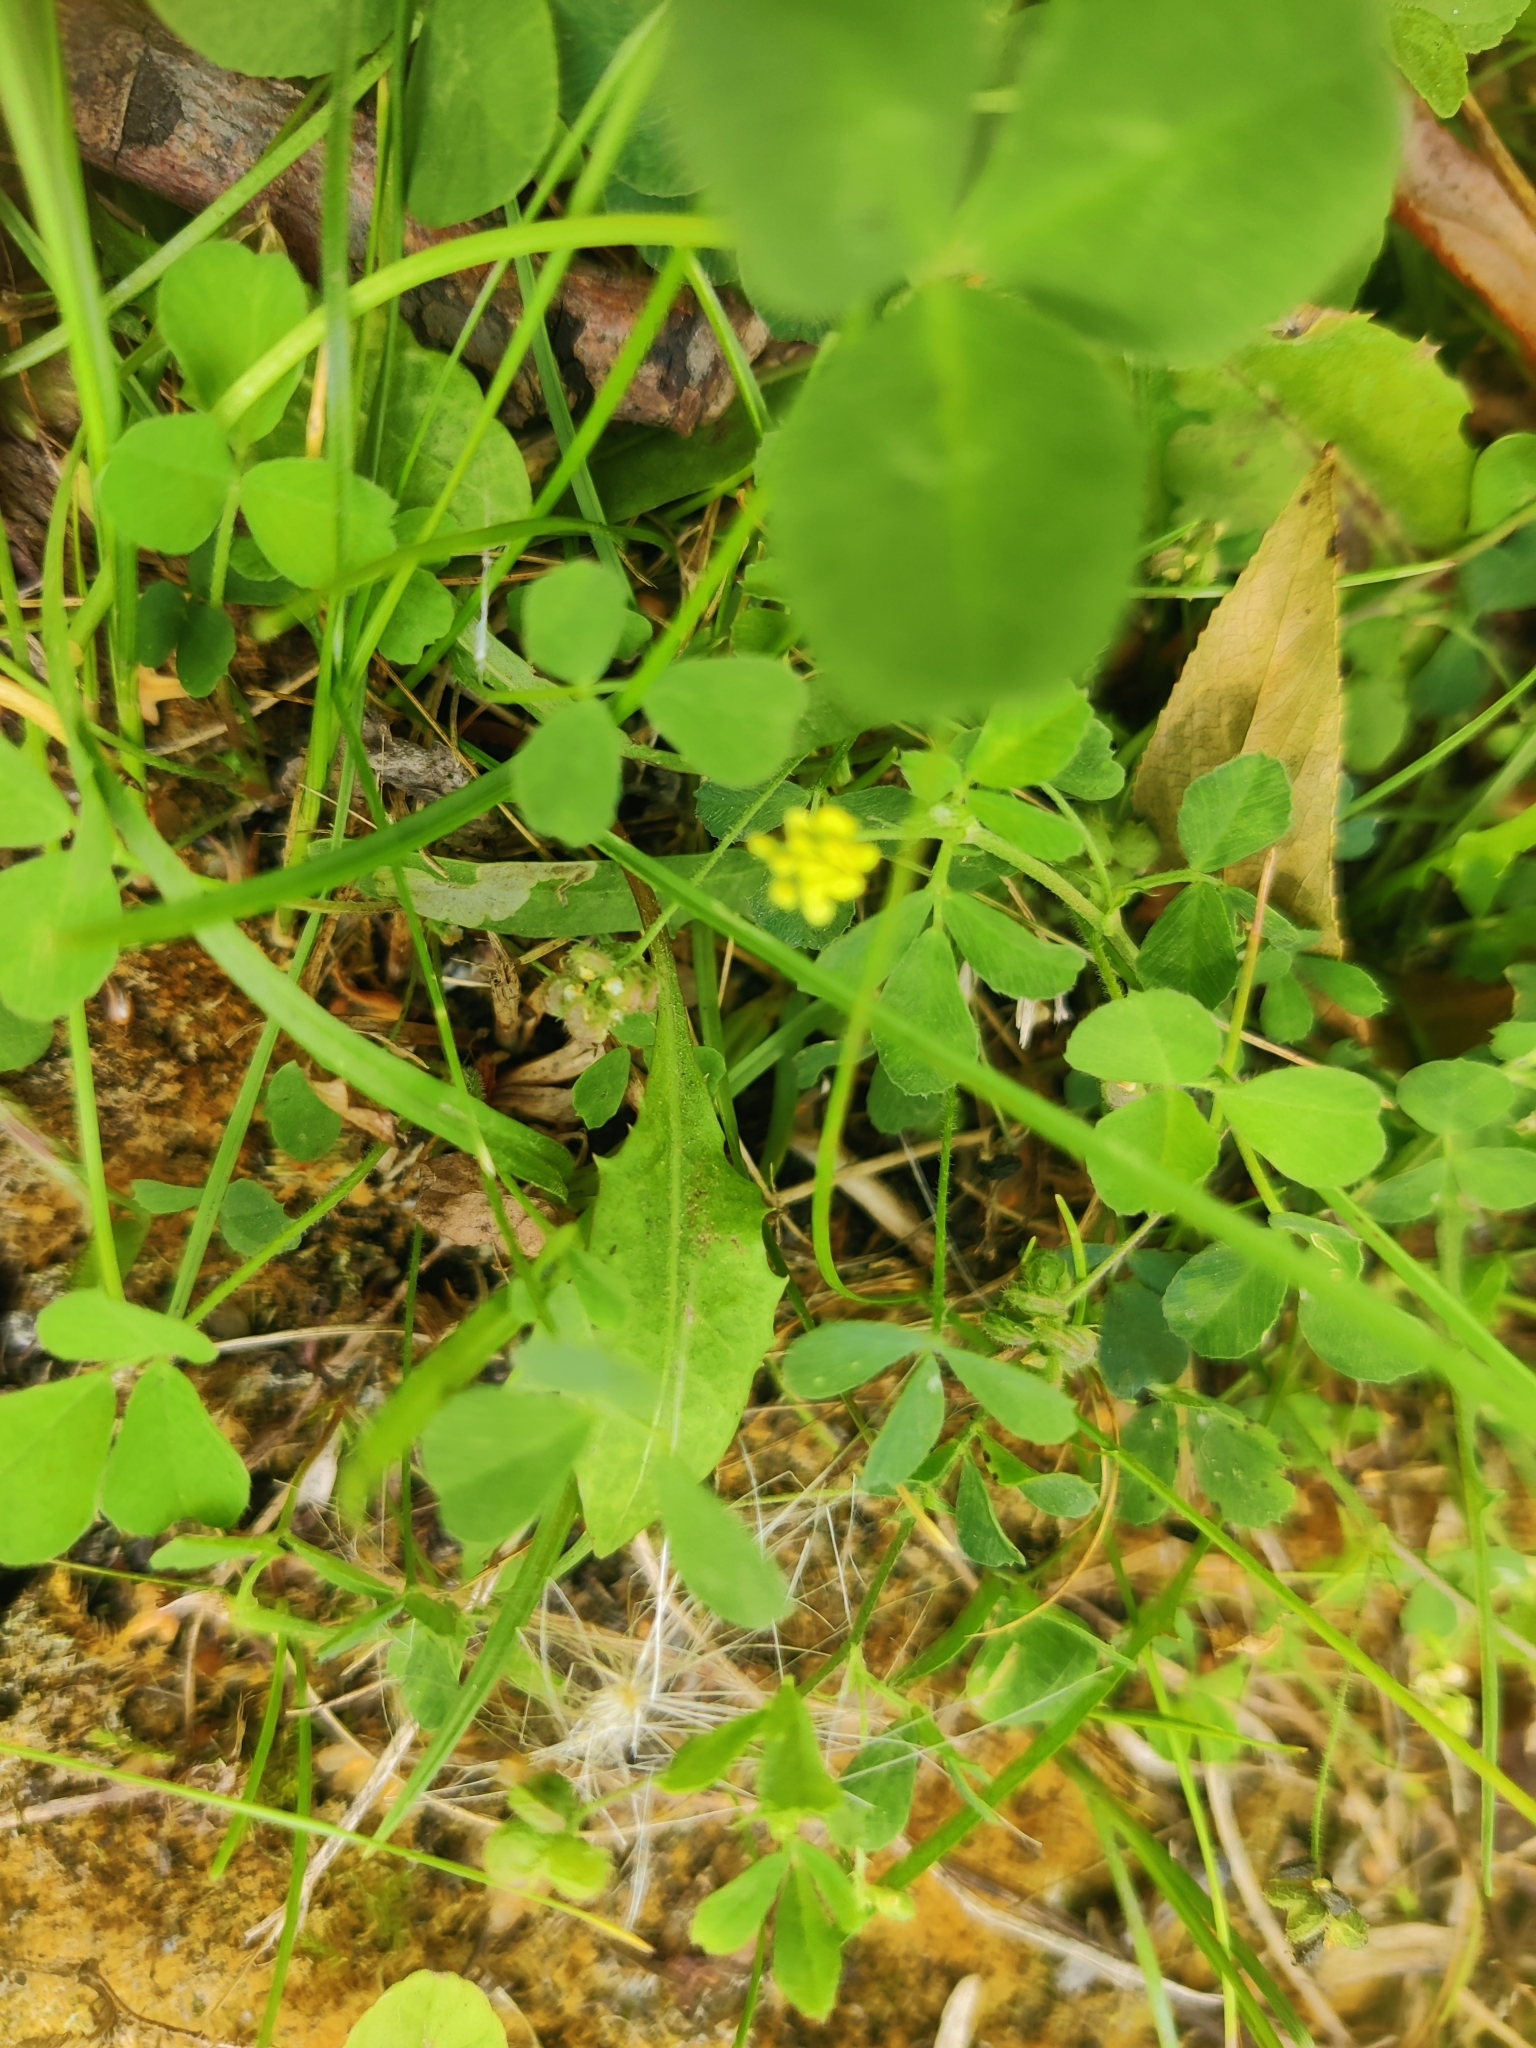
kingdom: Plantae
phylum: Tracheophyta
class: Magnoliopsida
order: Fabales
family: Fabaceae
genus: Medicago
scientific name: Medicago lupulina
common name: Black medick
